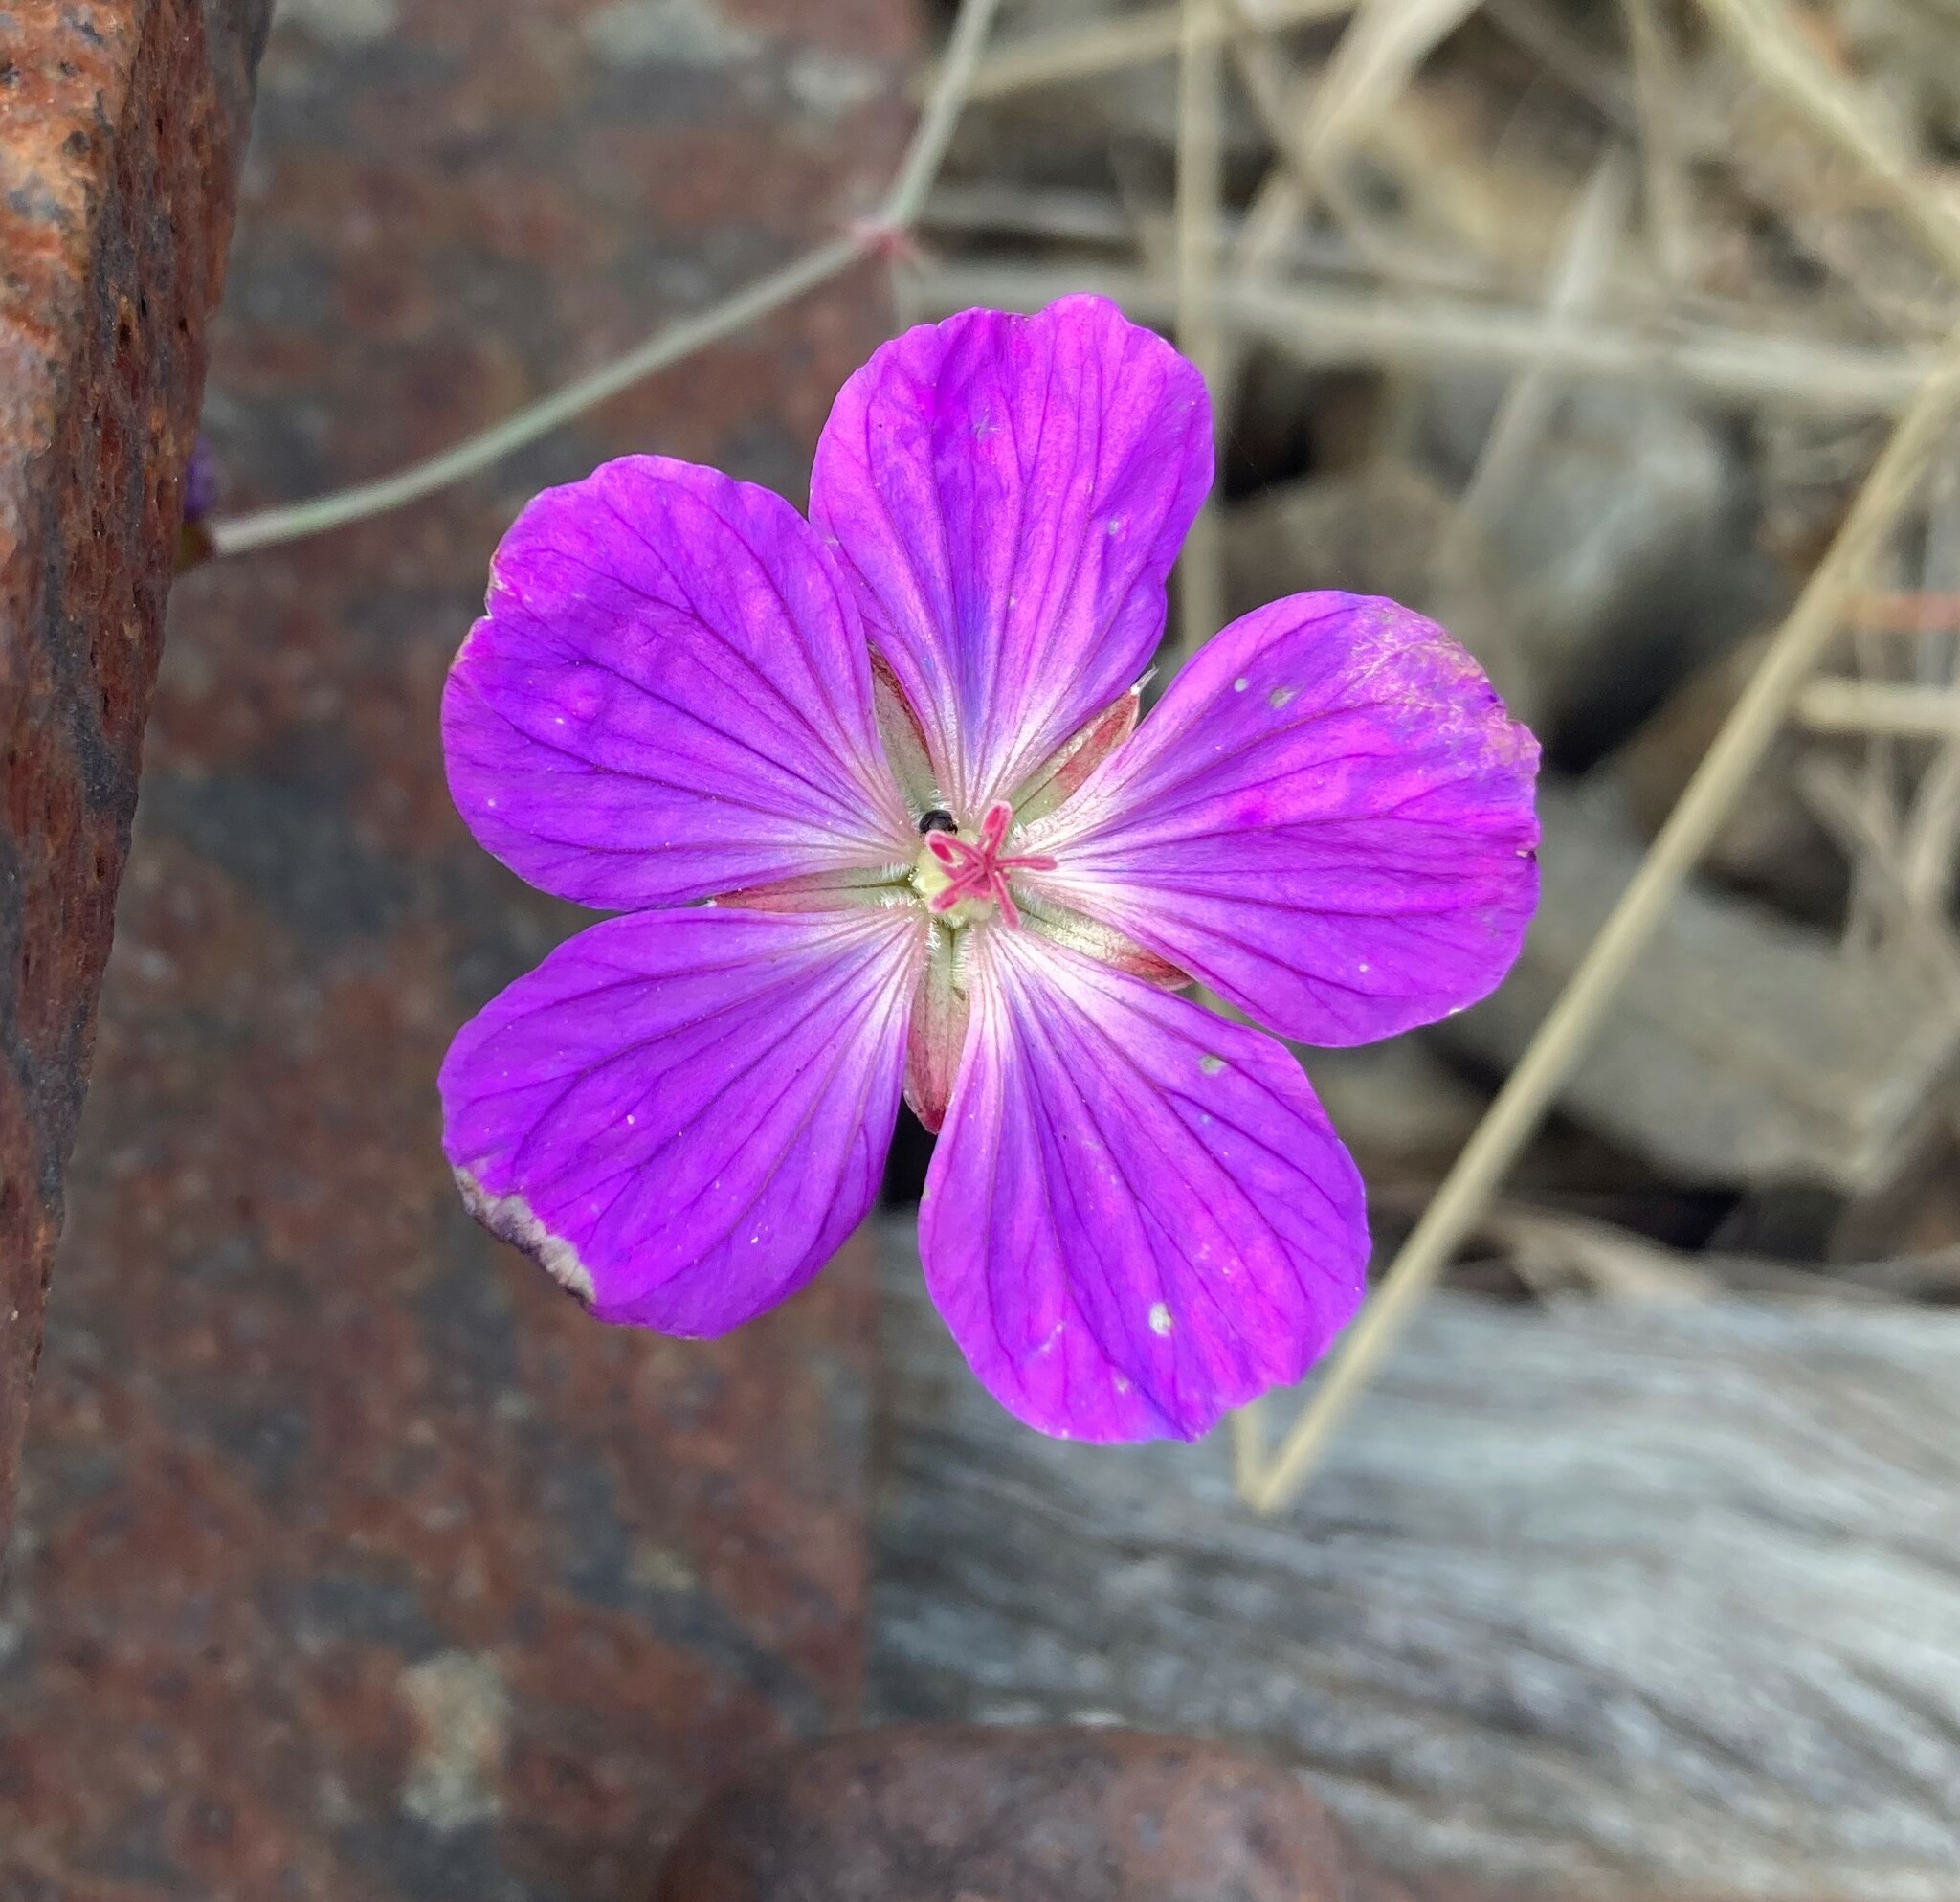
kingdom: Plantae
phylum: Tracheophyta
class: Magnoliopsida
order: Geraniales
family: Geraniaceae
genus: Geranium
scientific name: Geranium incanum
